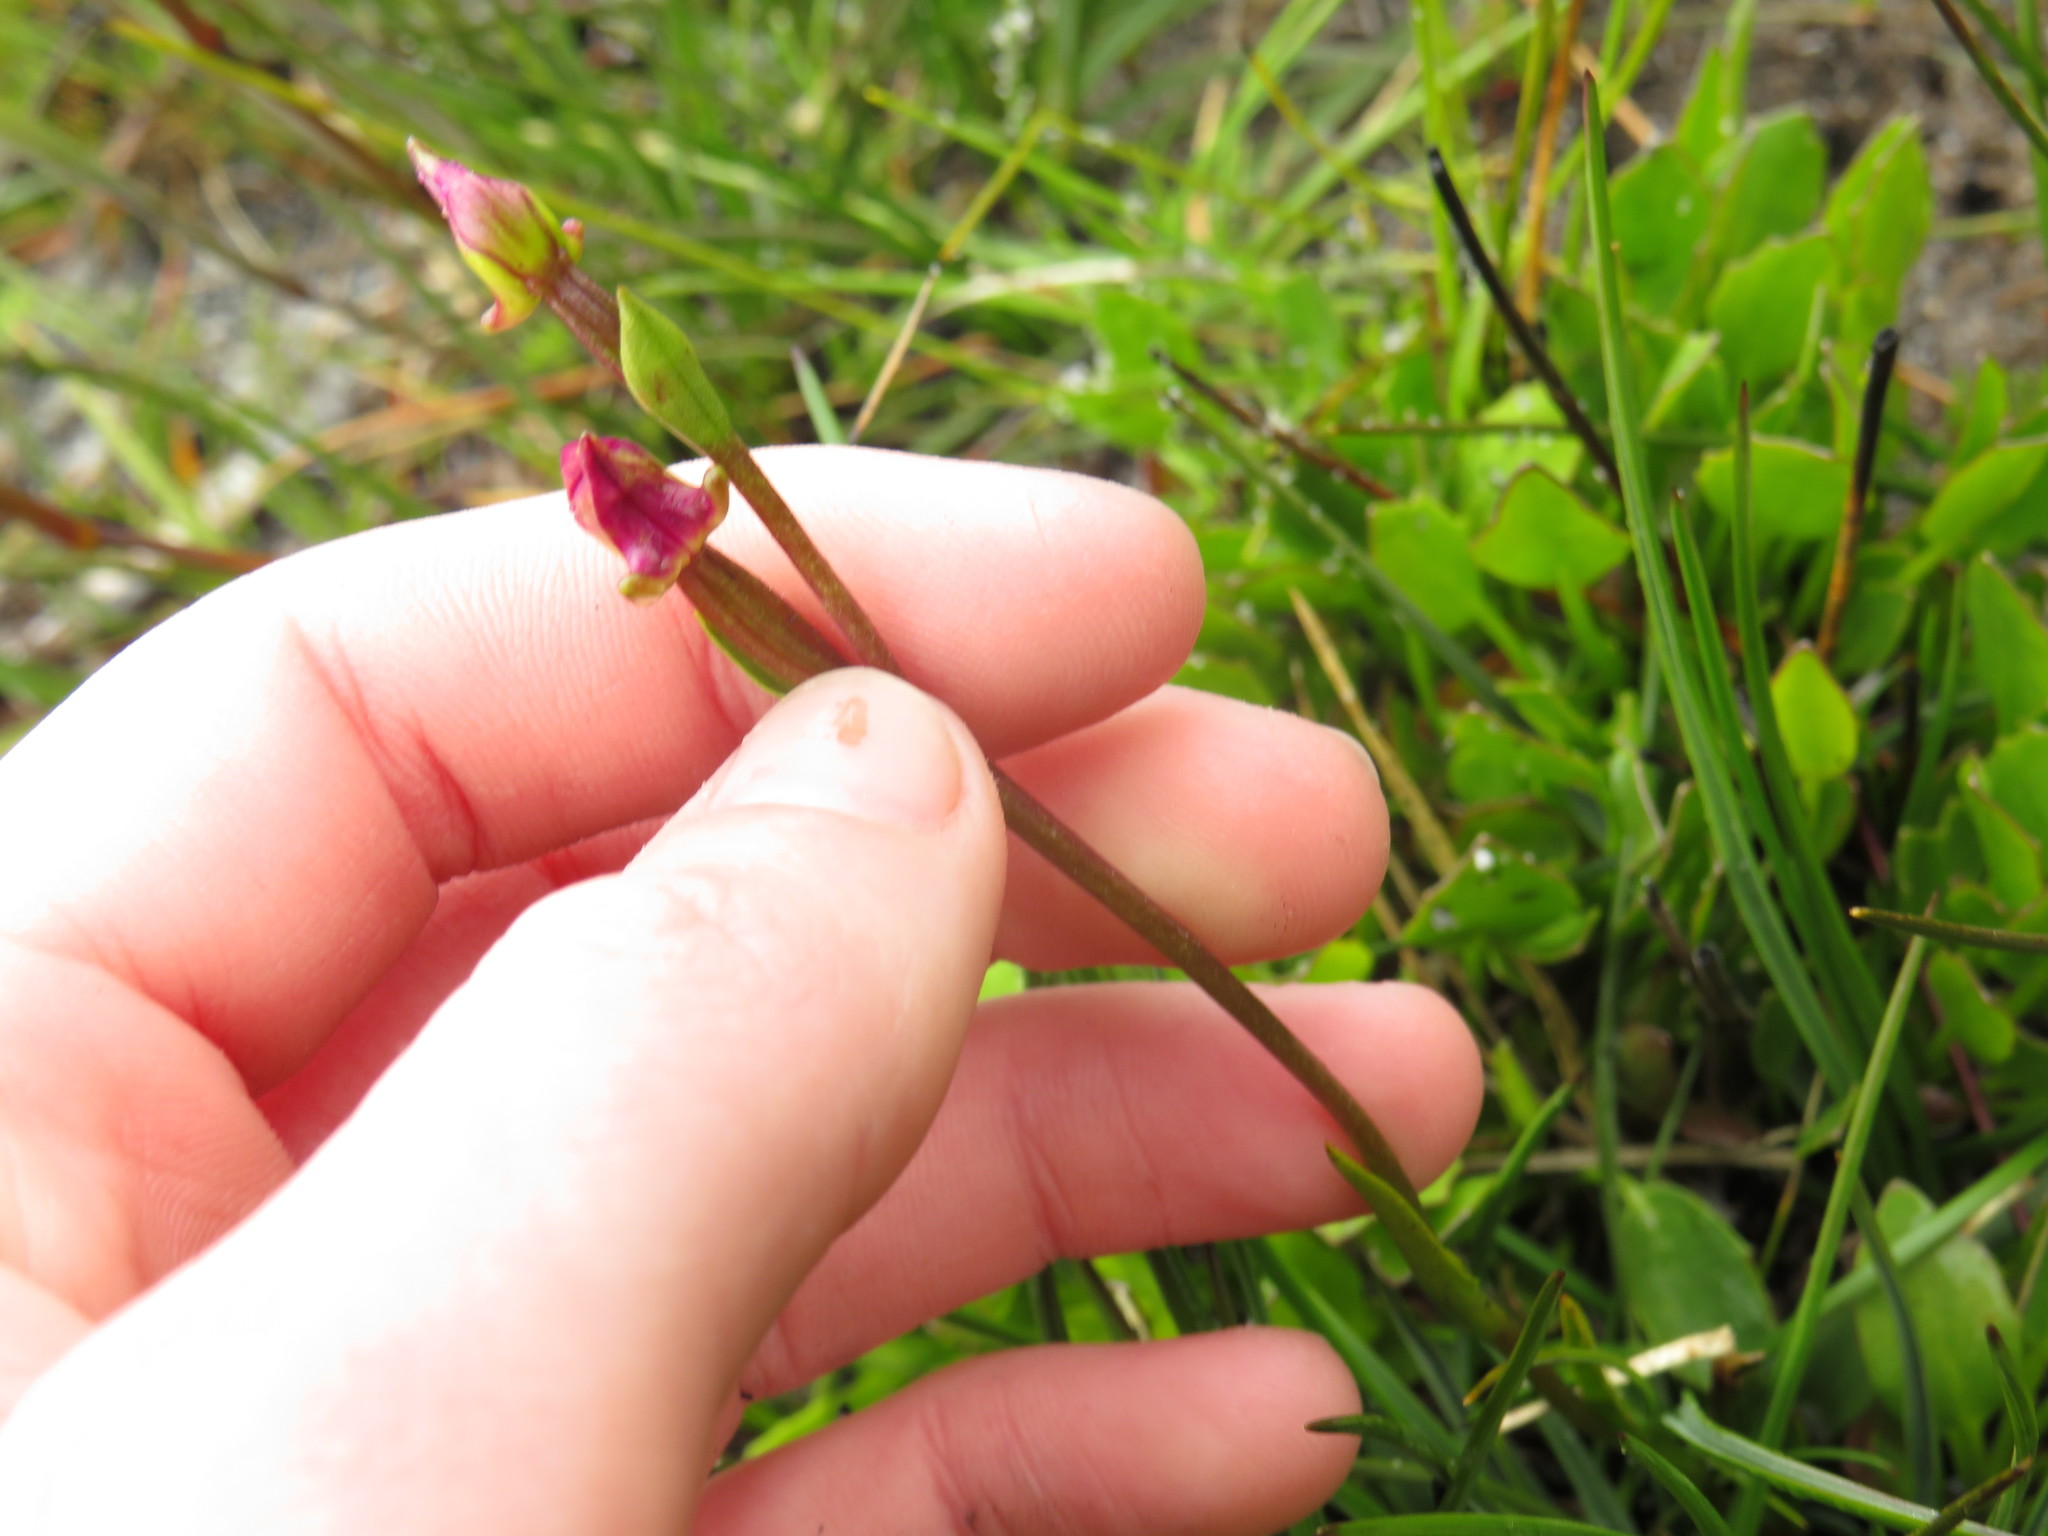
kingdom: Plantae
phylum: Tracheophyta
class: Liliopsida
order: Asparagales
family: Orchidaceae
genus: Disperis
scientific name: Disperis paludosa
